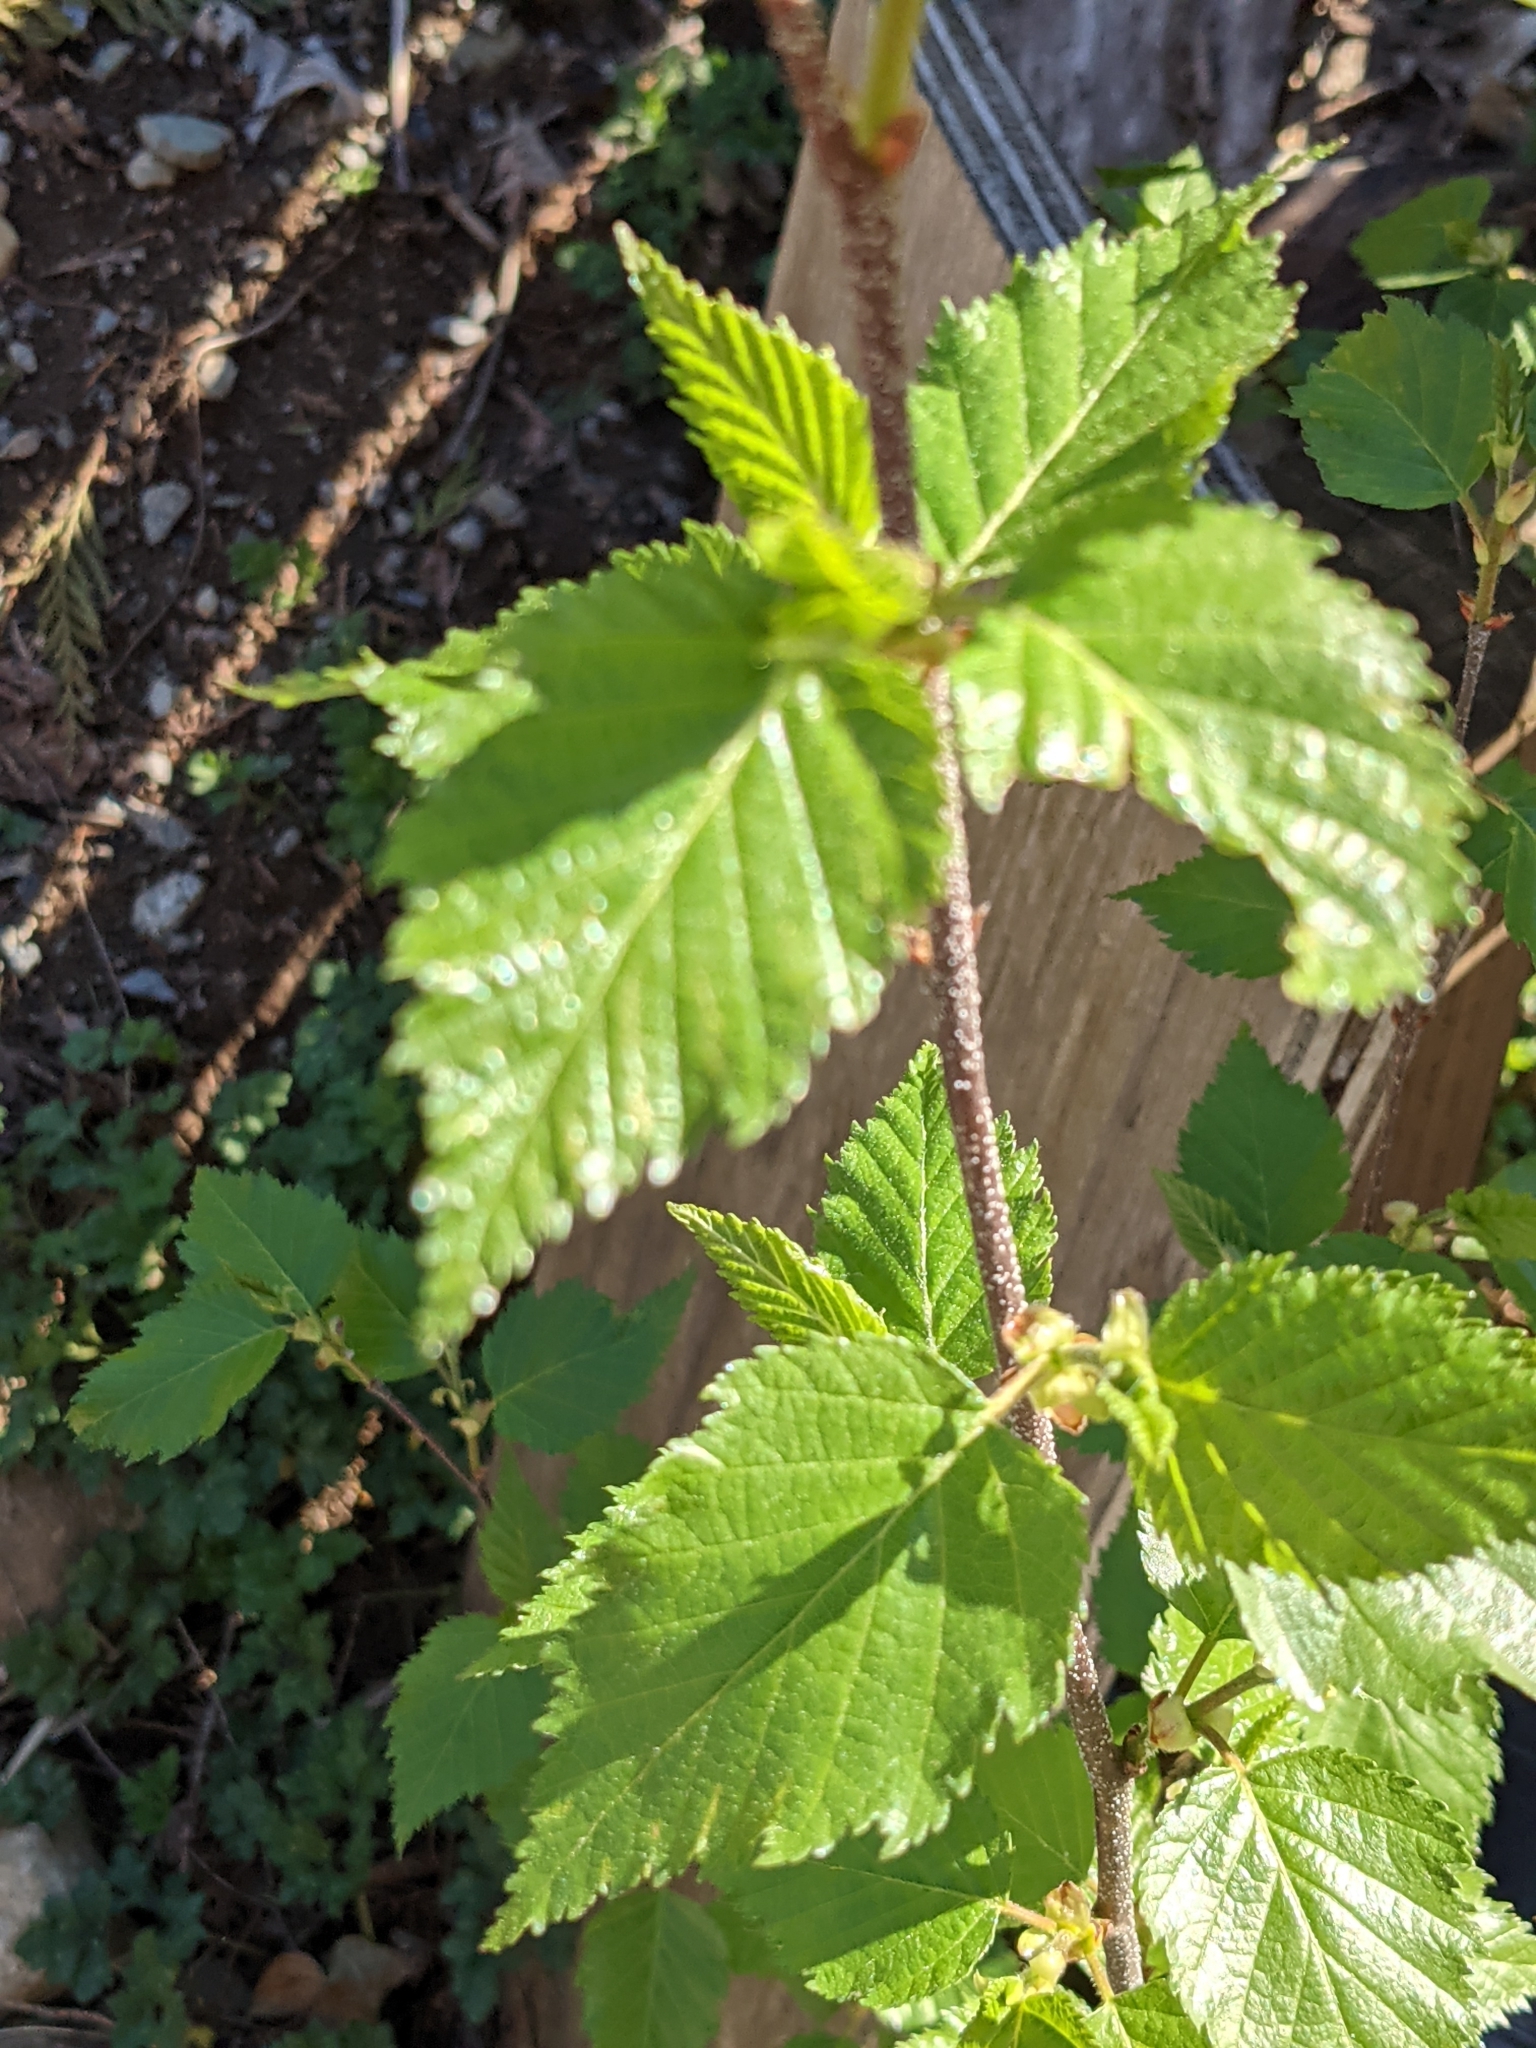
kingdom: Plantae
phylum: Tracheophyta
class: Magnoliopsida
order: Fagales
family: Betulaceae
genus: Betula
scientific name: Betula papyrifera
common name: Paper birch
